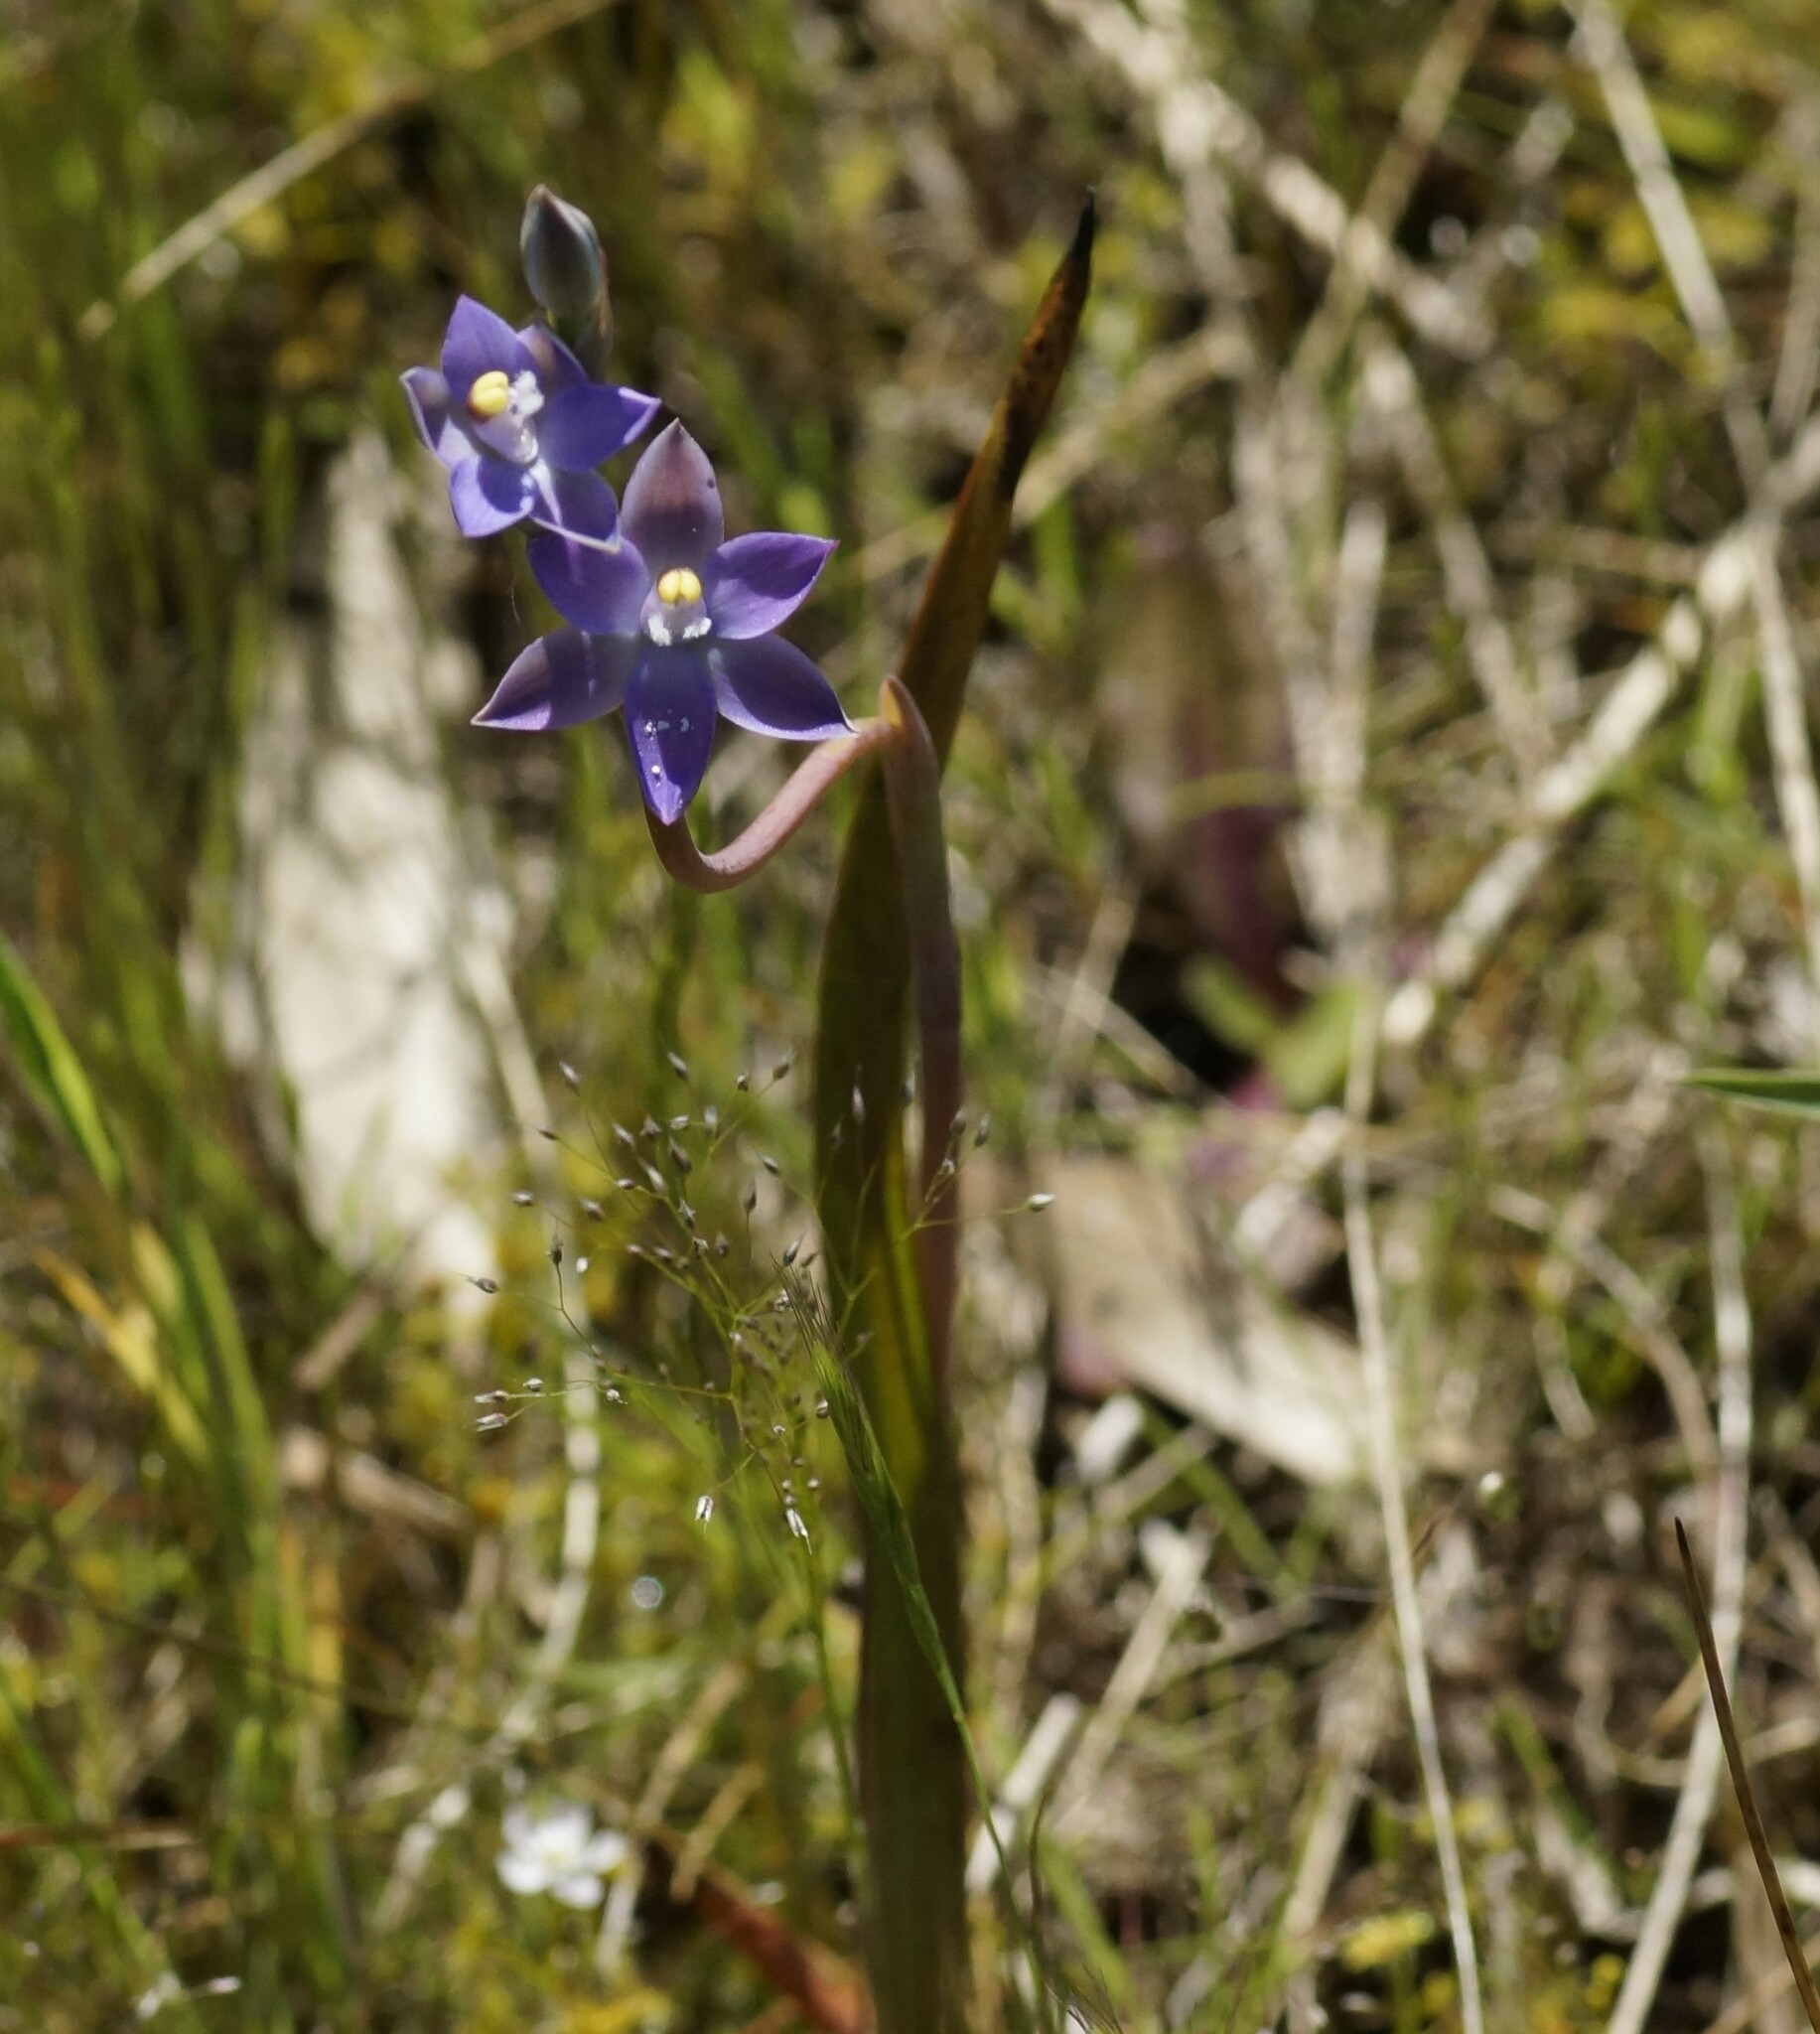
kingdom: Plantae
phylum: Tracheophyta
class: Liliopsida
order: Asparagales
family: Orchidaceae
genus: Thelymitra
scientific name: Thelymitra peniculata
